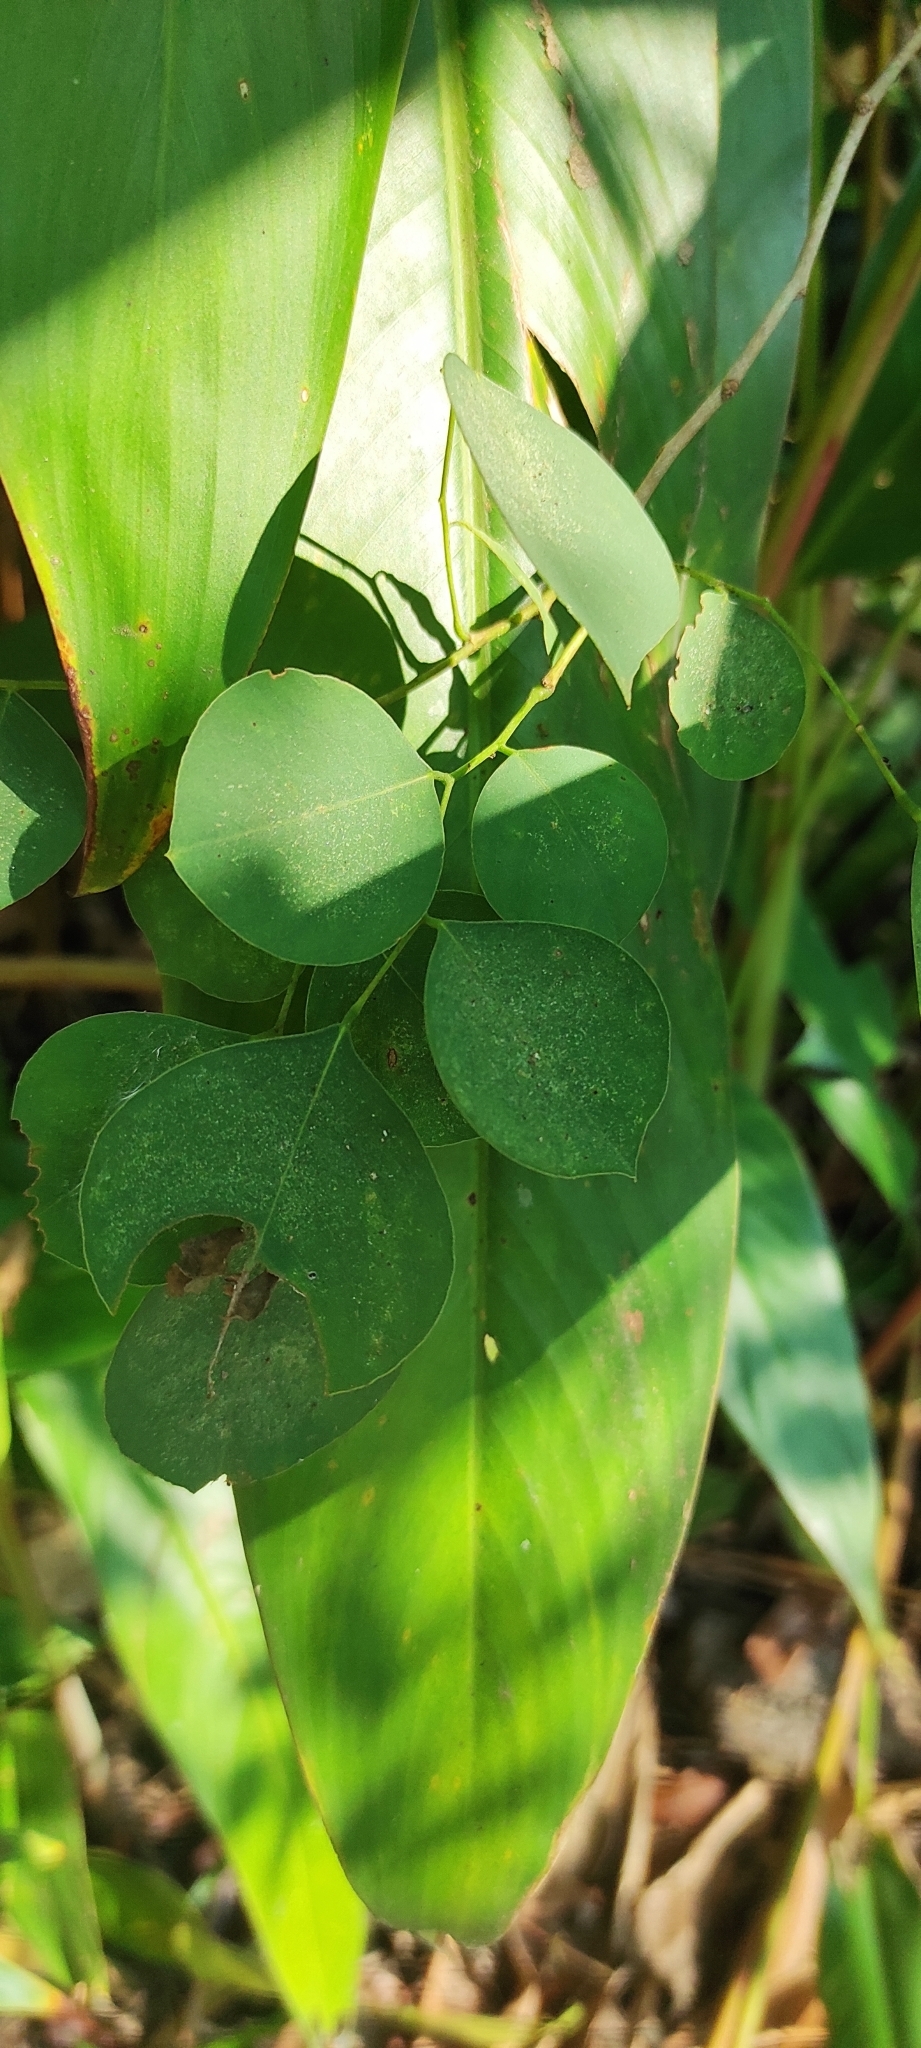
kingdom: Plantae
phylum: Tracheophyta
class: Magnoliopsida
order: Fabales
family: Fabaceae
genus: Dalbergia
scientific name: Dalbergia latifolia
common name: Bombay blackwood
